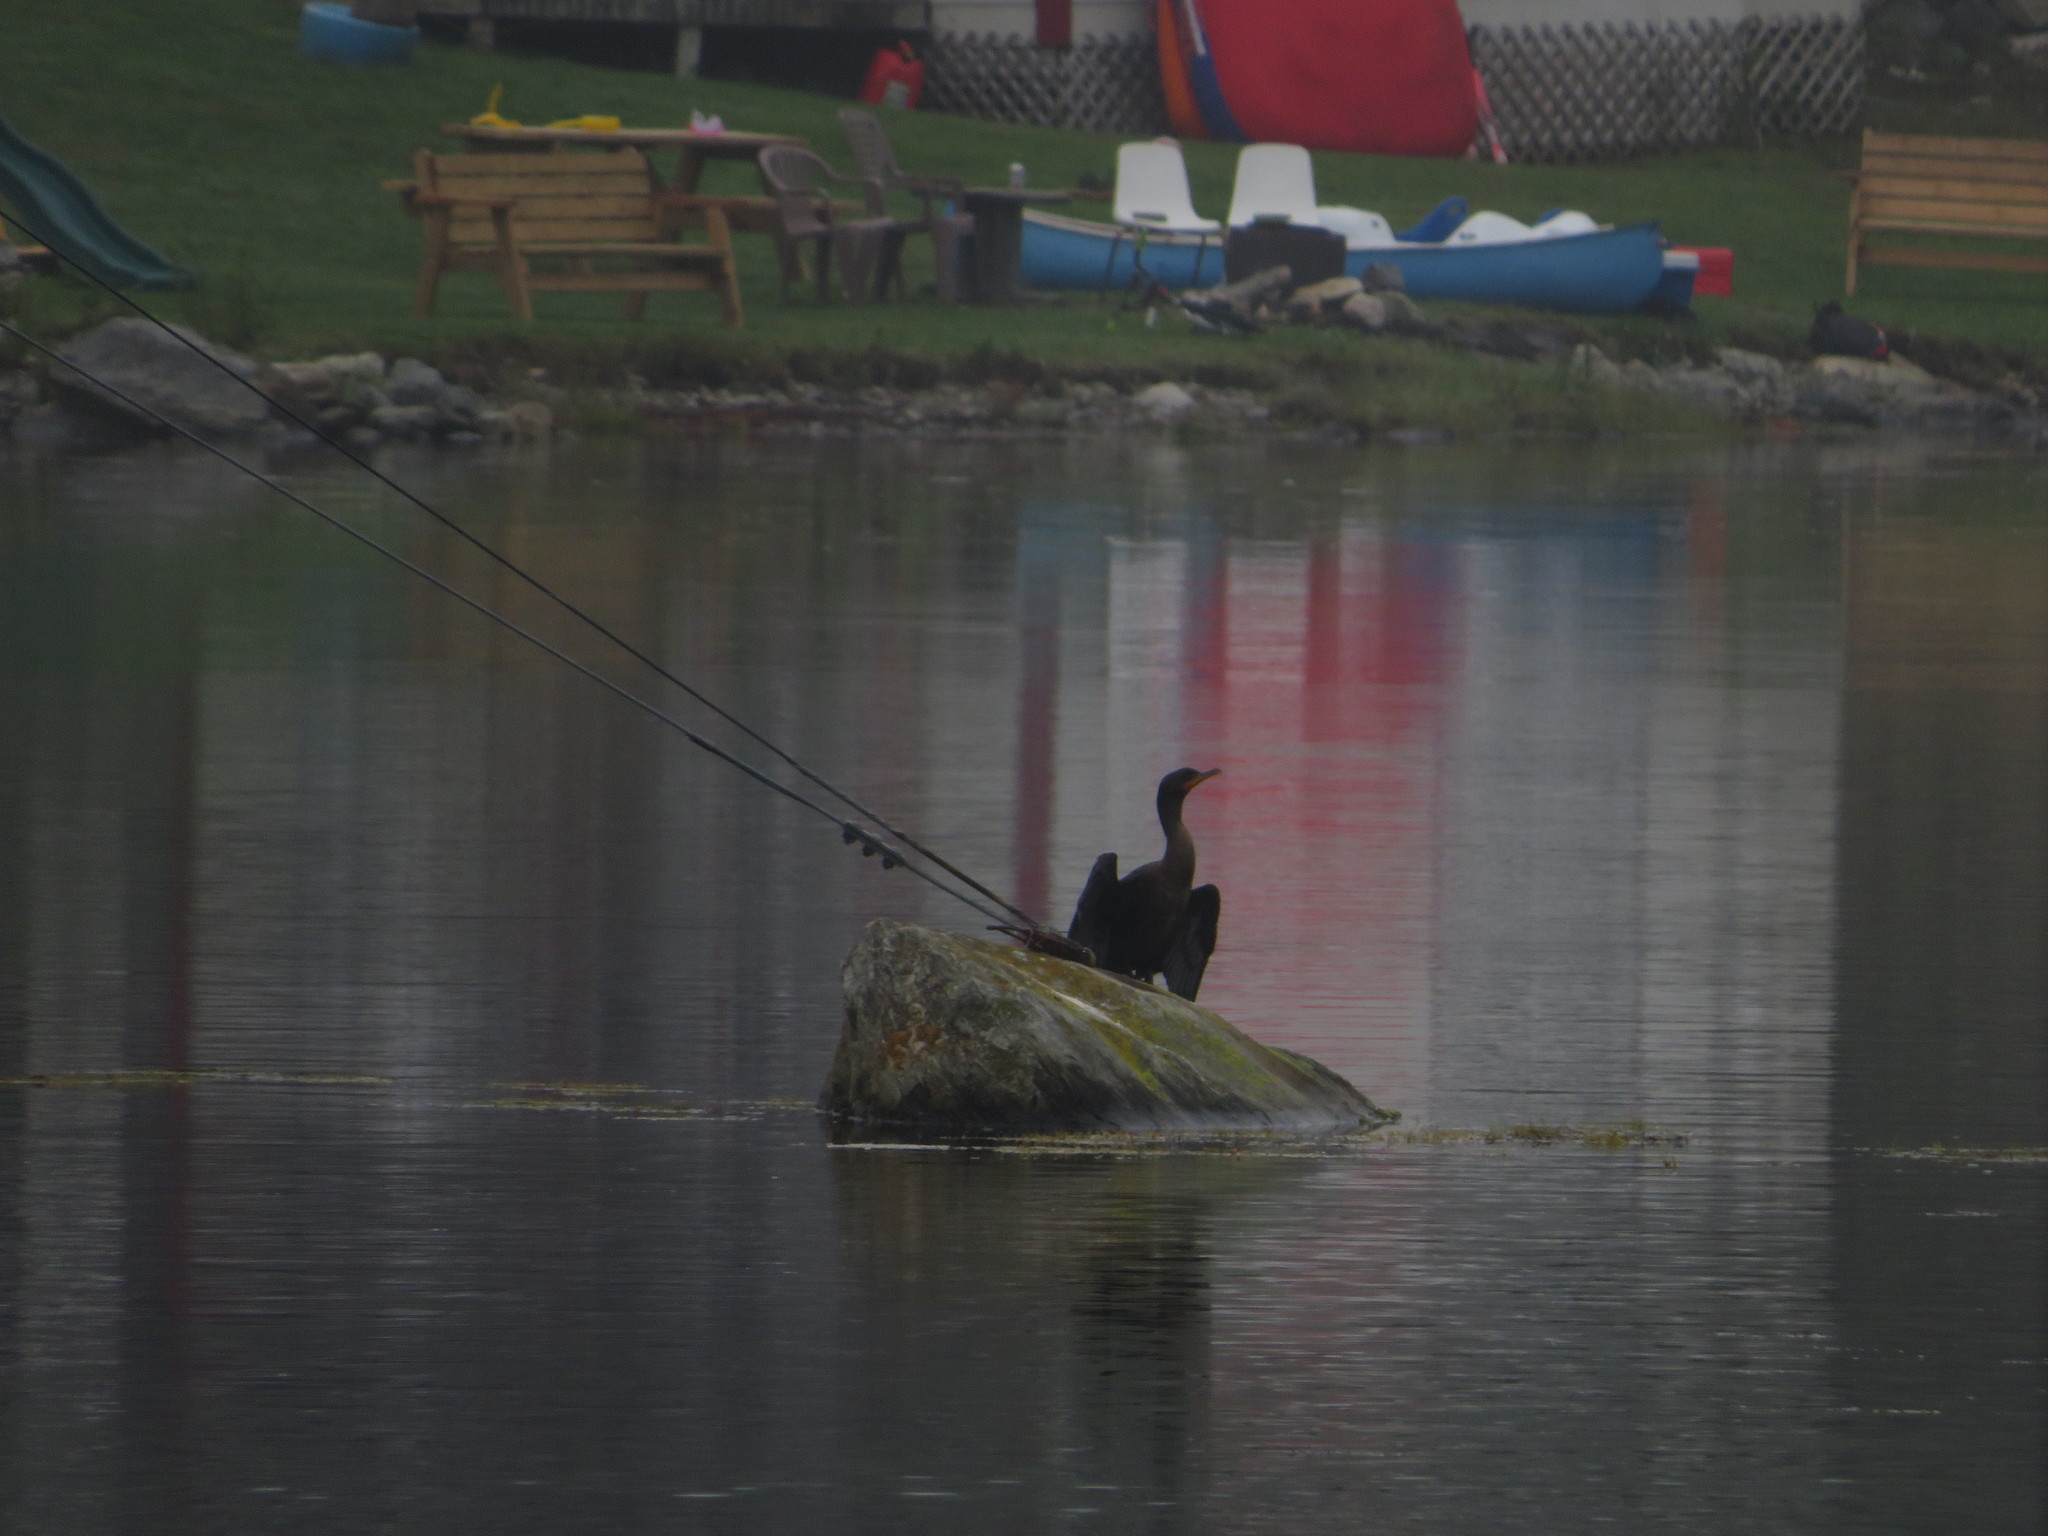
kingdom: Animalia
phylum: Chordata
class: Aves
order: Suliformes
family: Phalacrocoracidae
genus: Phalacrocorax
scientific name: Phalacrocorax auritus
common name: Double-crested cormorant
